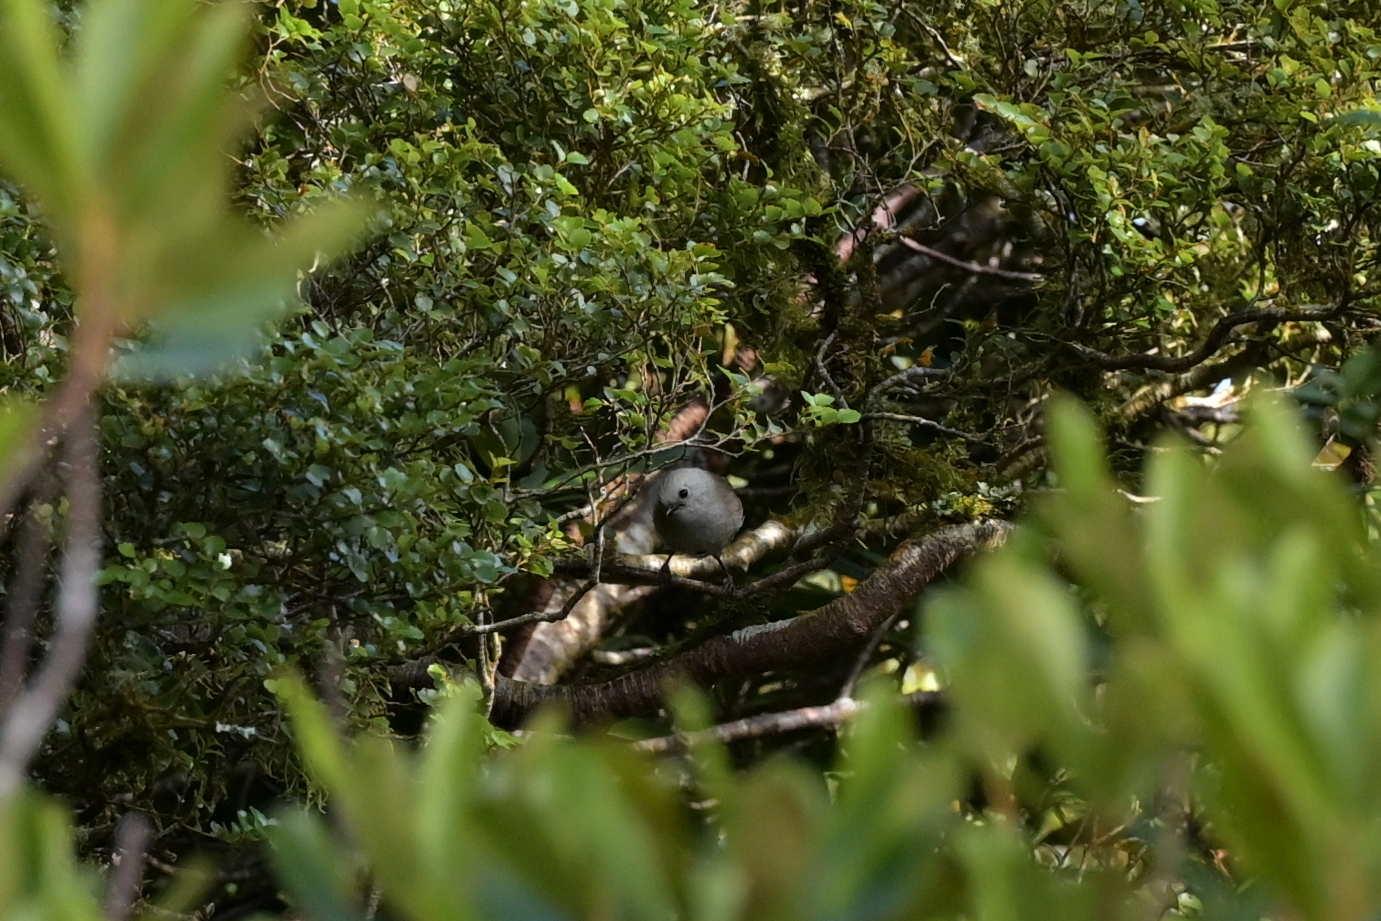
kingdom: Animalia
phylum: Chordata
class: Aves
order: Passeriformes
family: Acanthizidae
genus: Mohoua
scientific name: Mohoua albicilla
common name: Whitehead
